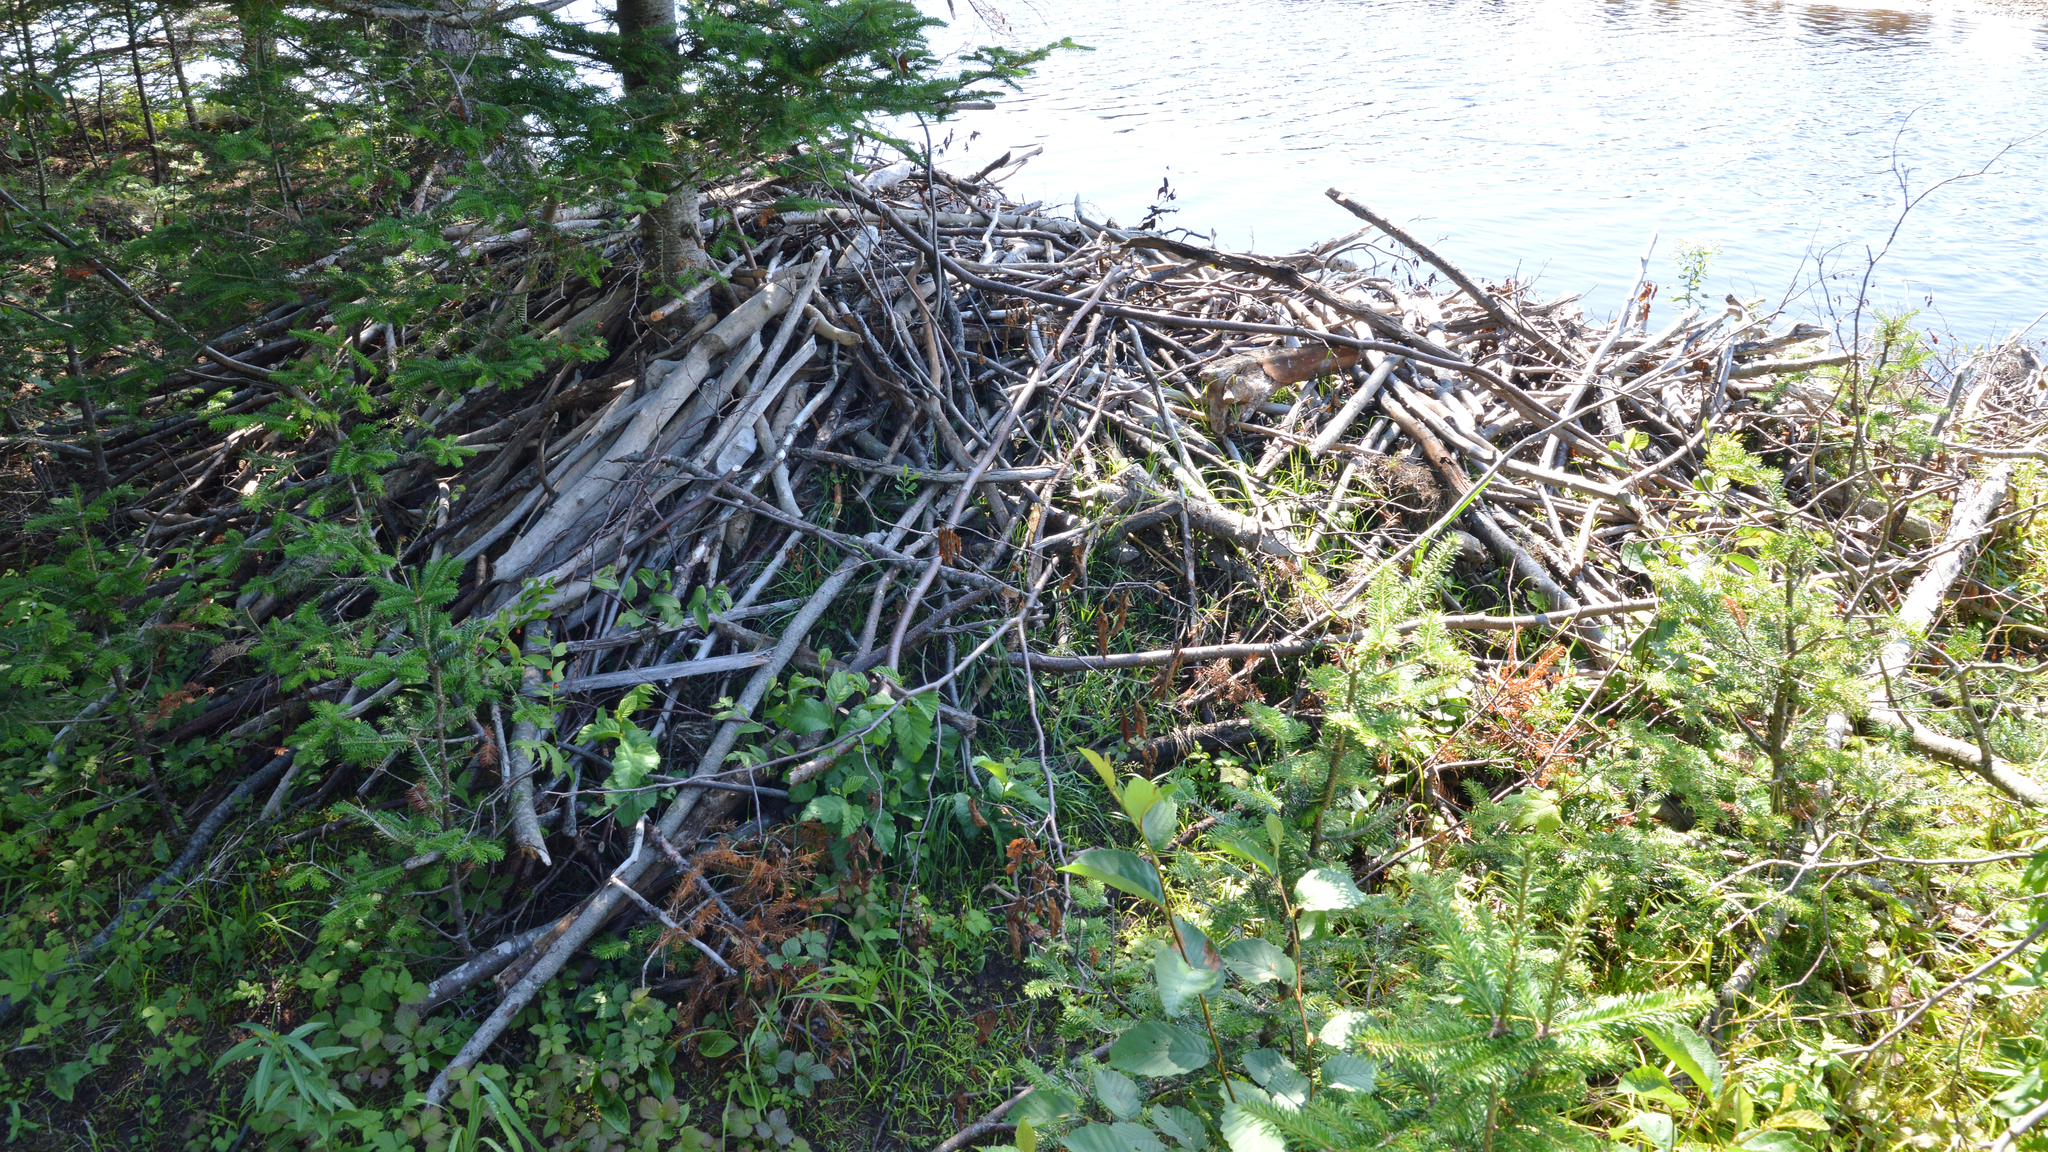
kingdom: Animalia
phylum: Chordata
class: Mammalia
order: Rodentia
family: Castoridae
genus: Castor
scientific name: Castor canadensis
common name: American beaver
